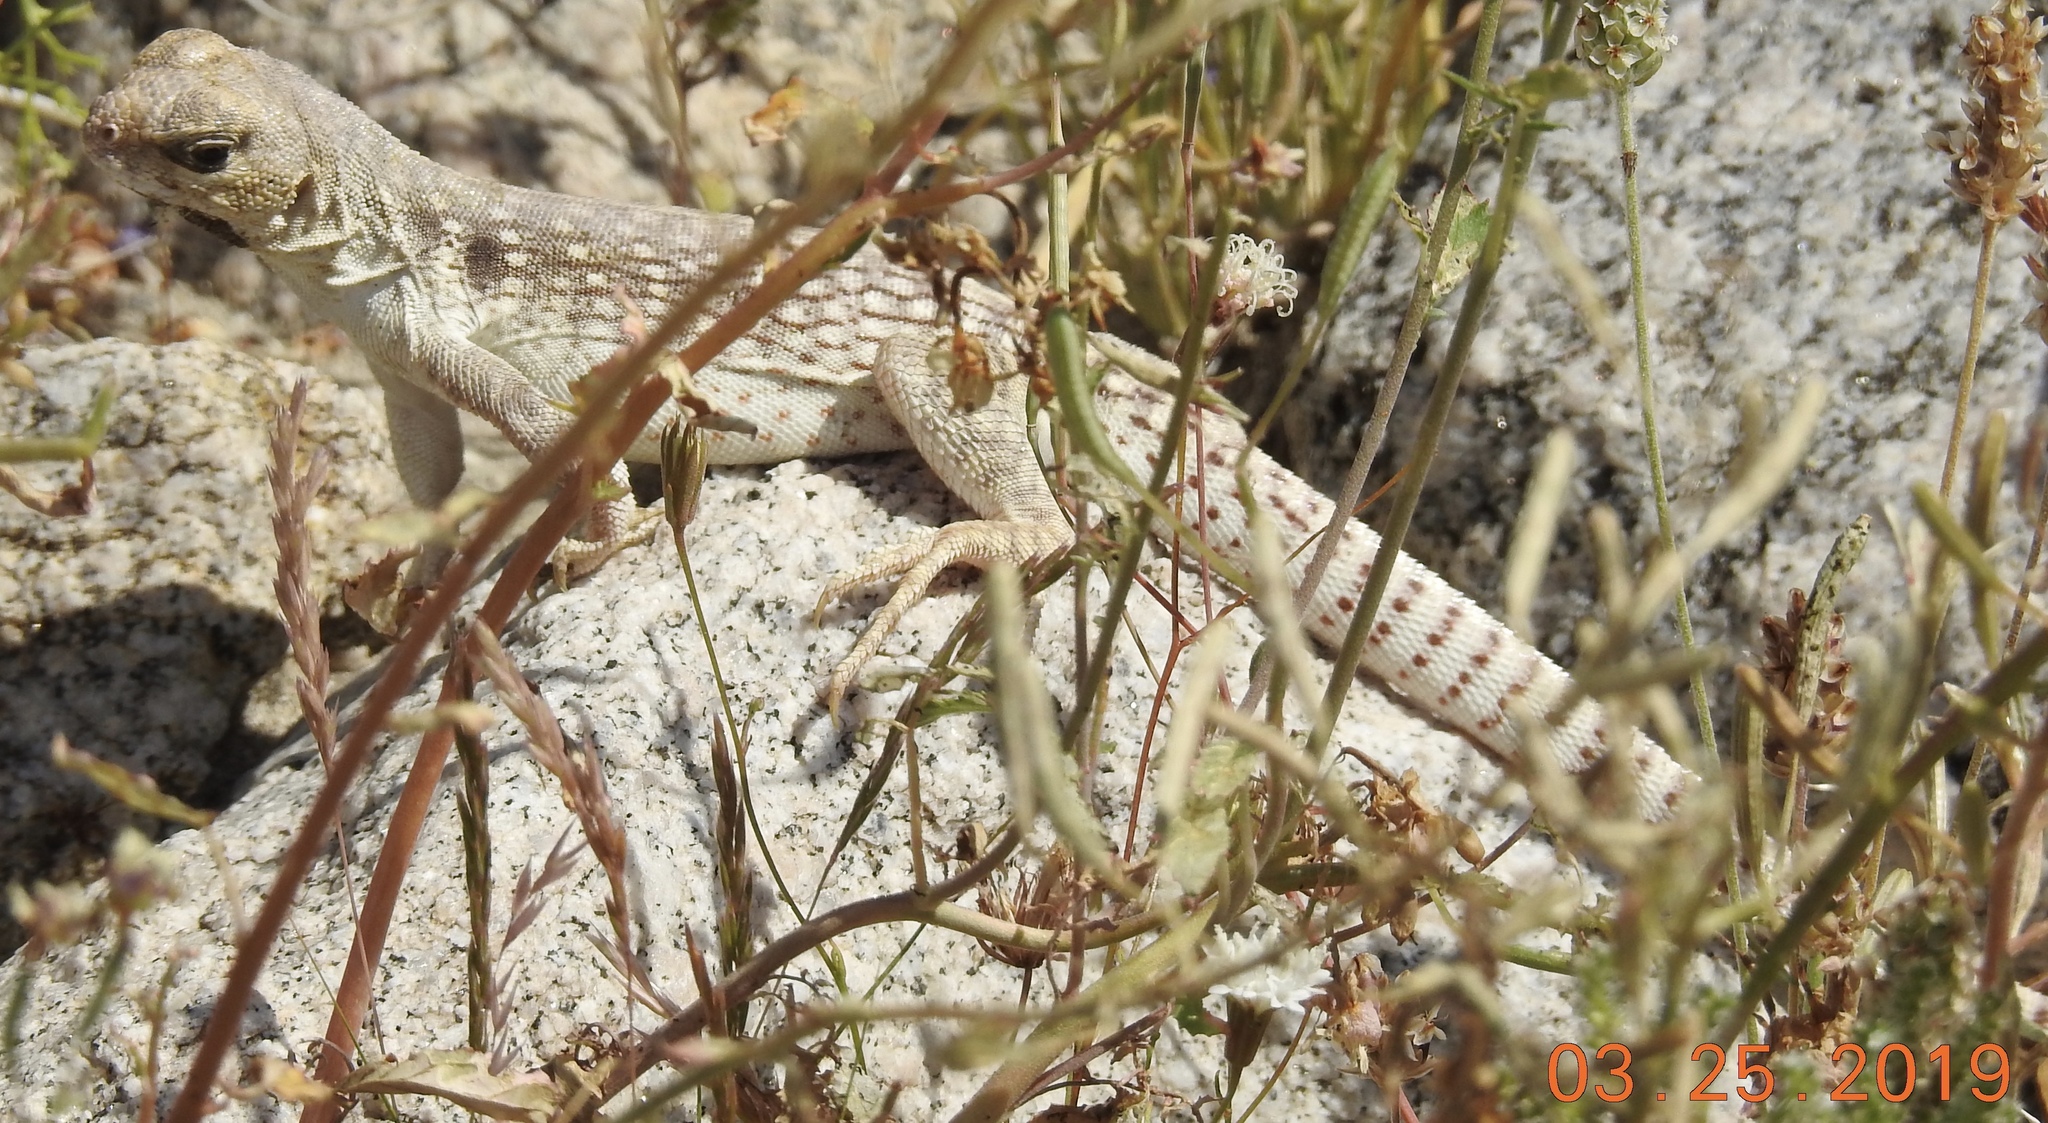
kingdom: Animalia
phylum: Chordata
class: Squamata
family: Iguanidae
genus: Dipsosaurus
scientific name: Dipsosaurus dorsalis
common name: Desert iguana
